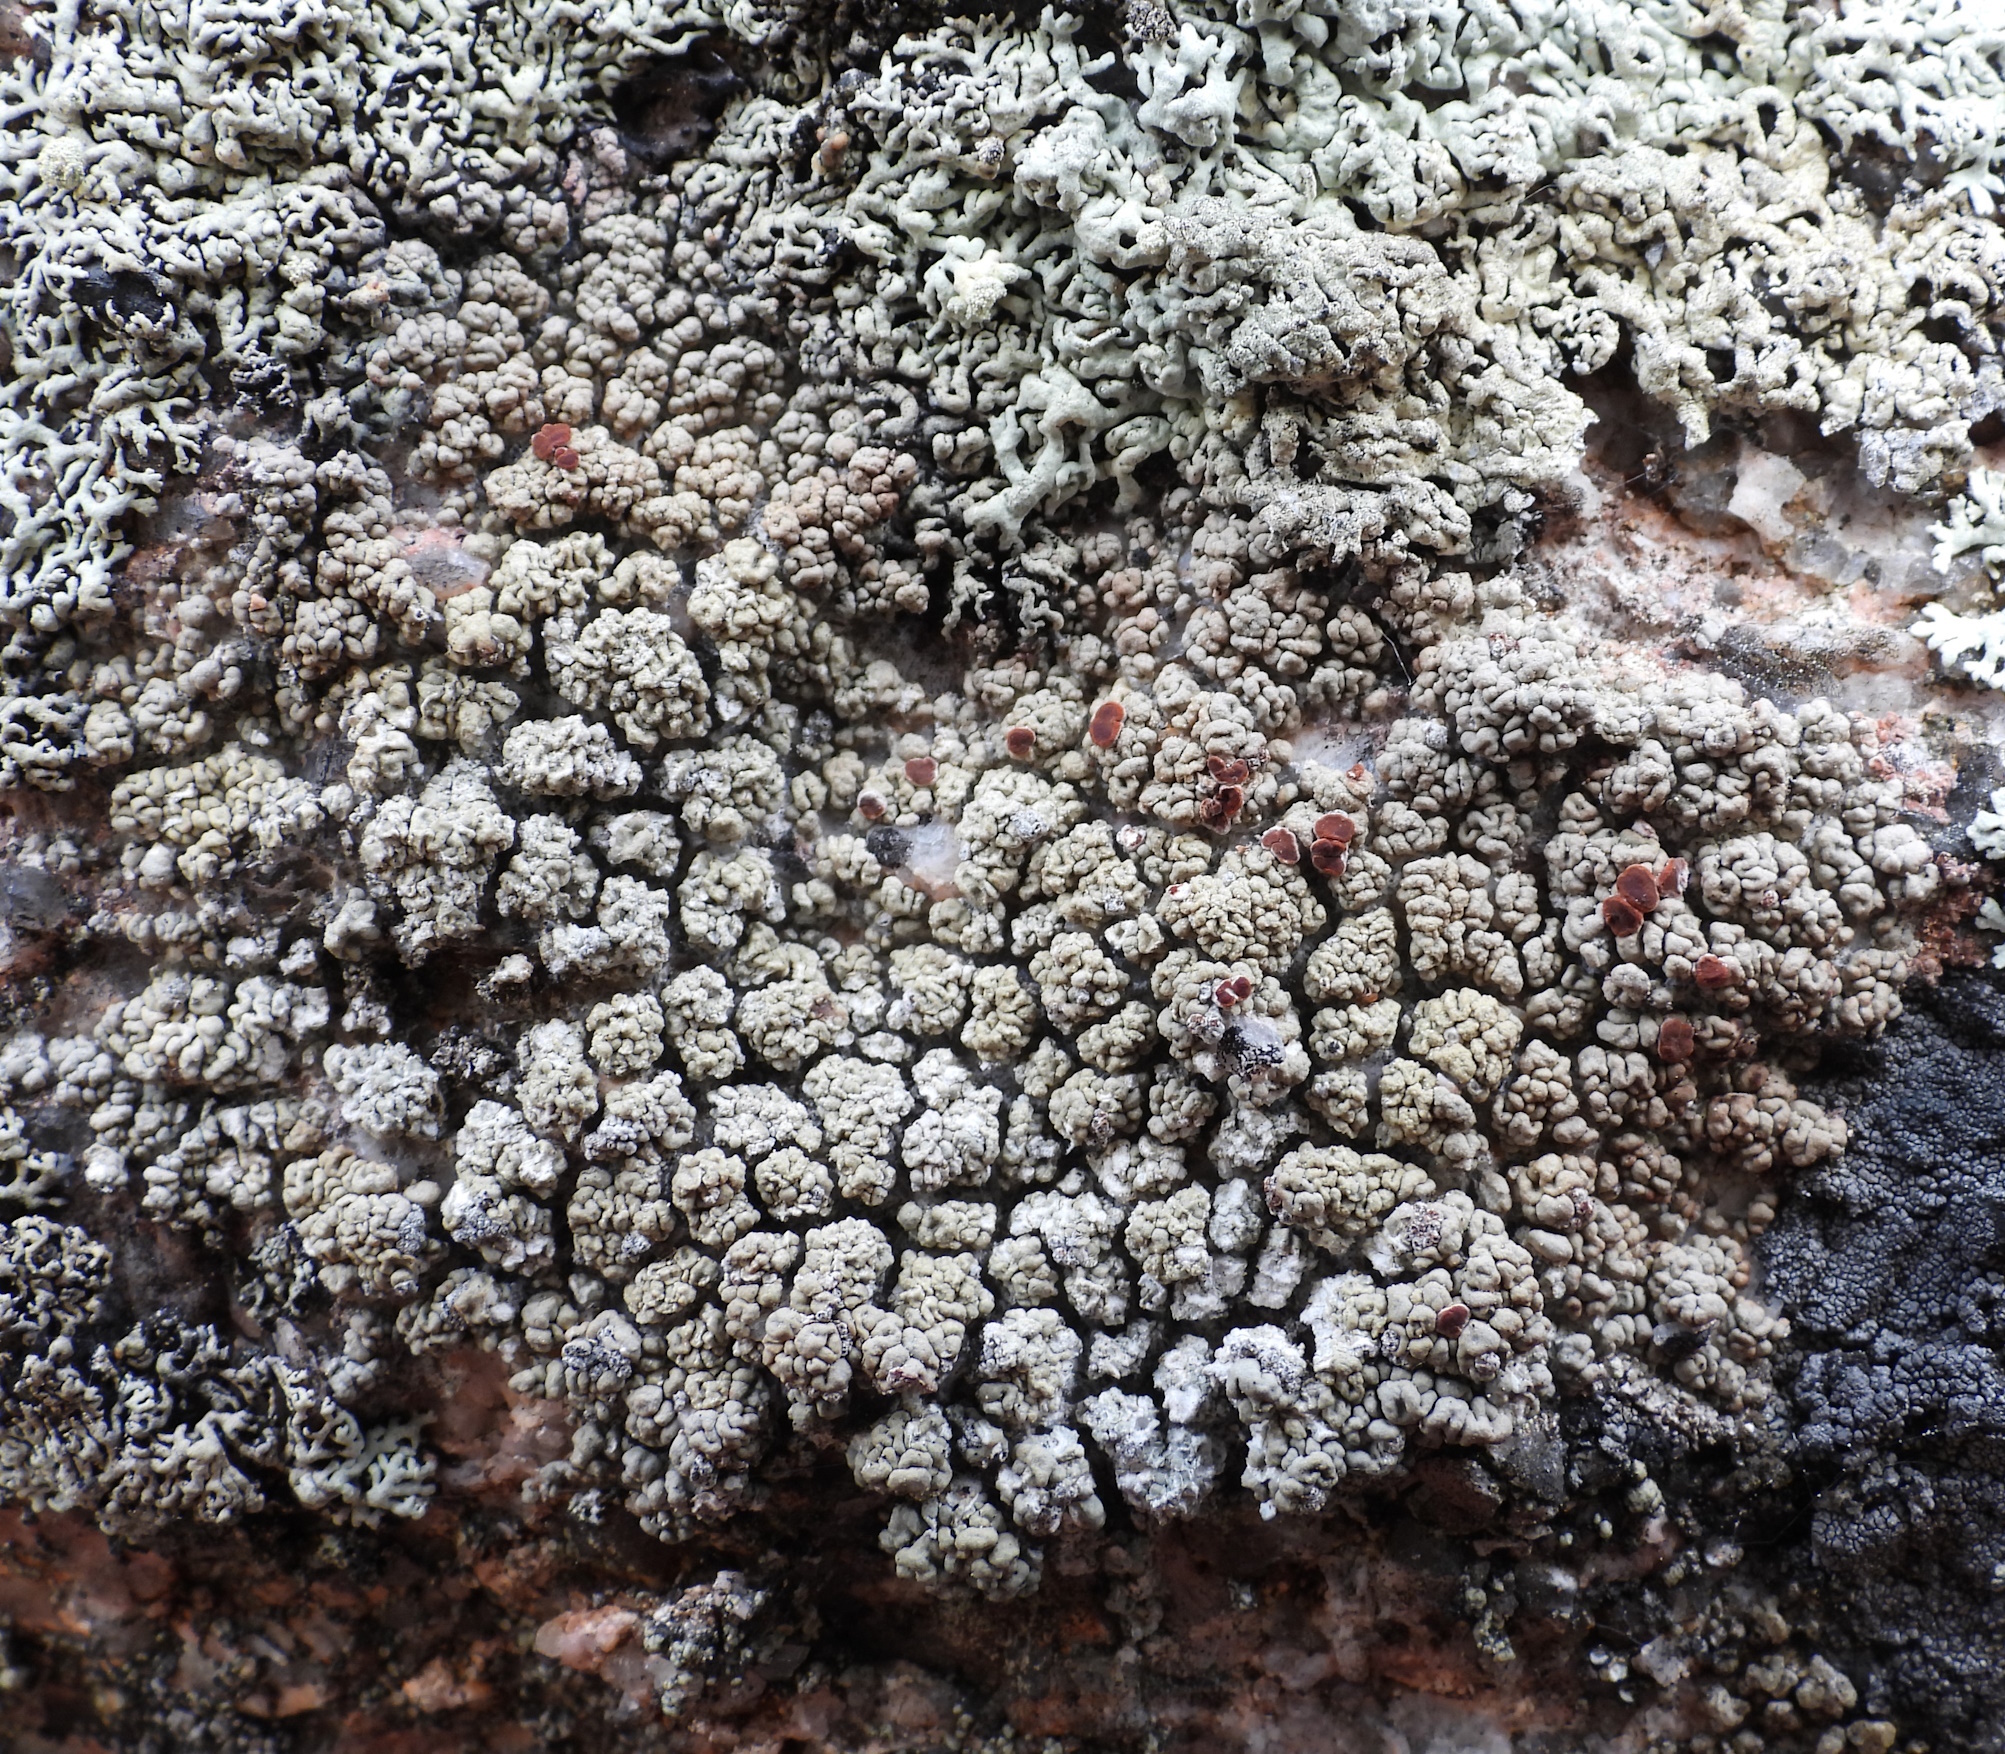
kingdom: Fungi
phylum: Ascomycota
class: Lecanoromycetes
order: Umbilicariales
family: Ophioparmaceae
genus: Ophioparma
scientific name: Ophioparma ventosa
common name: Blood-spot
